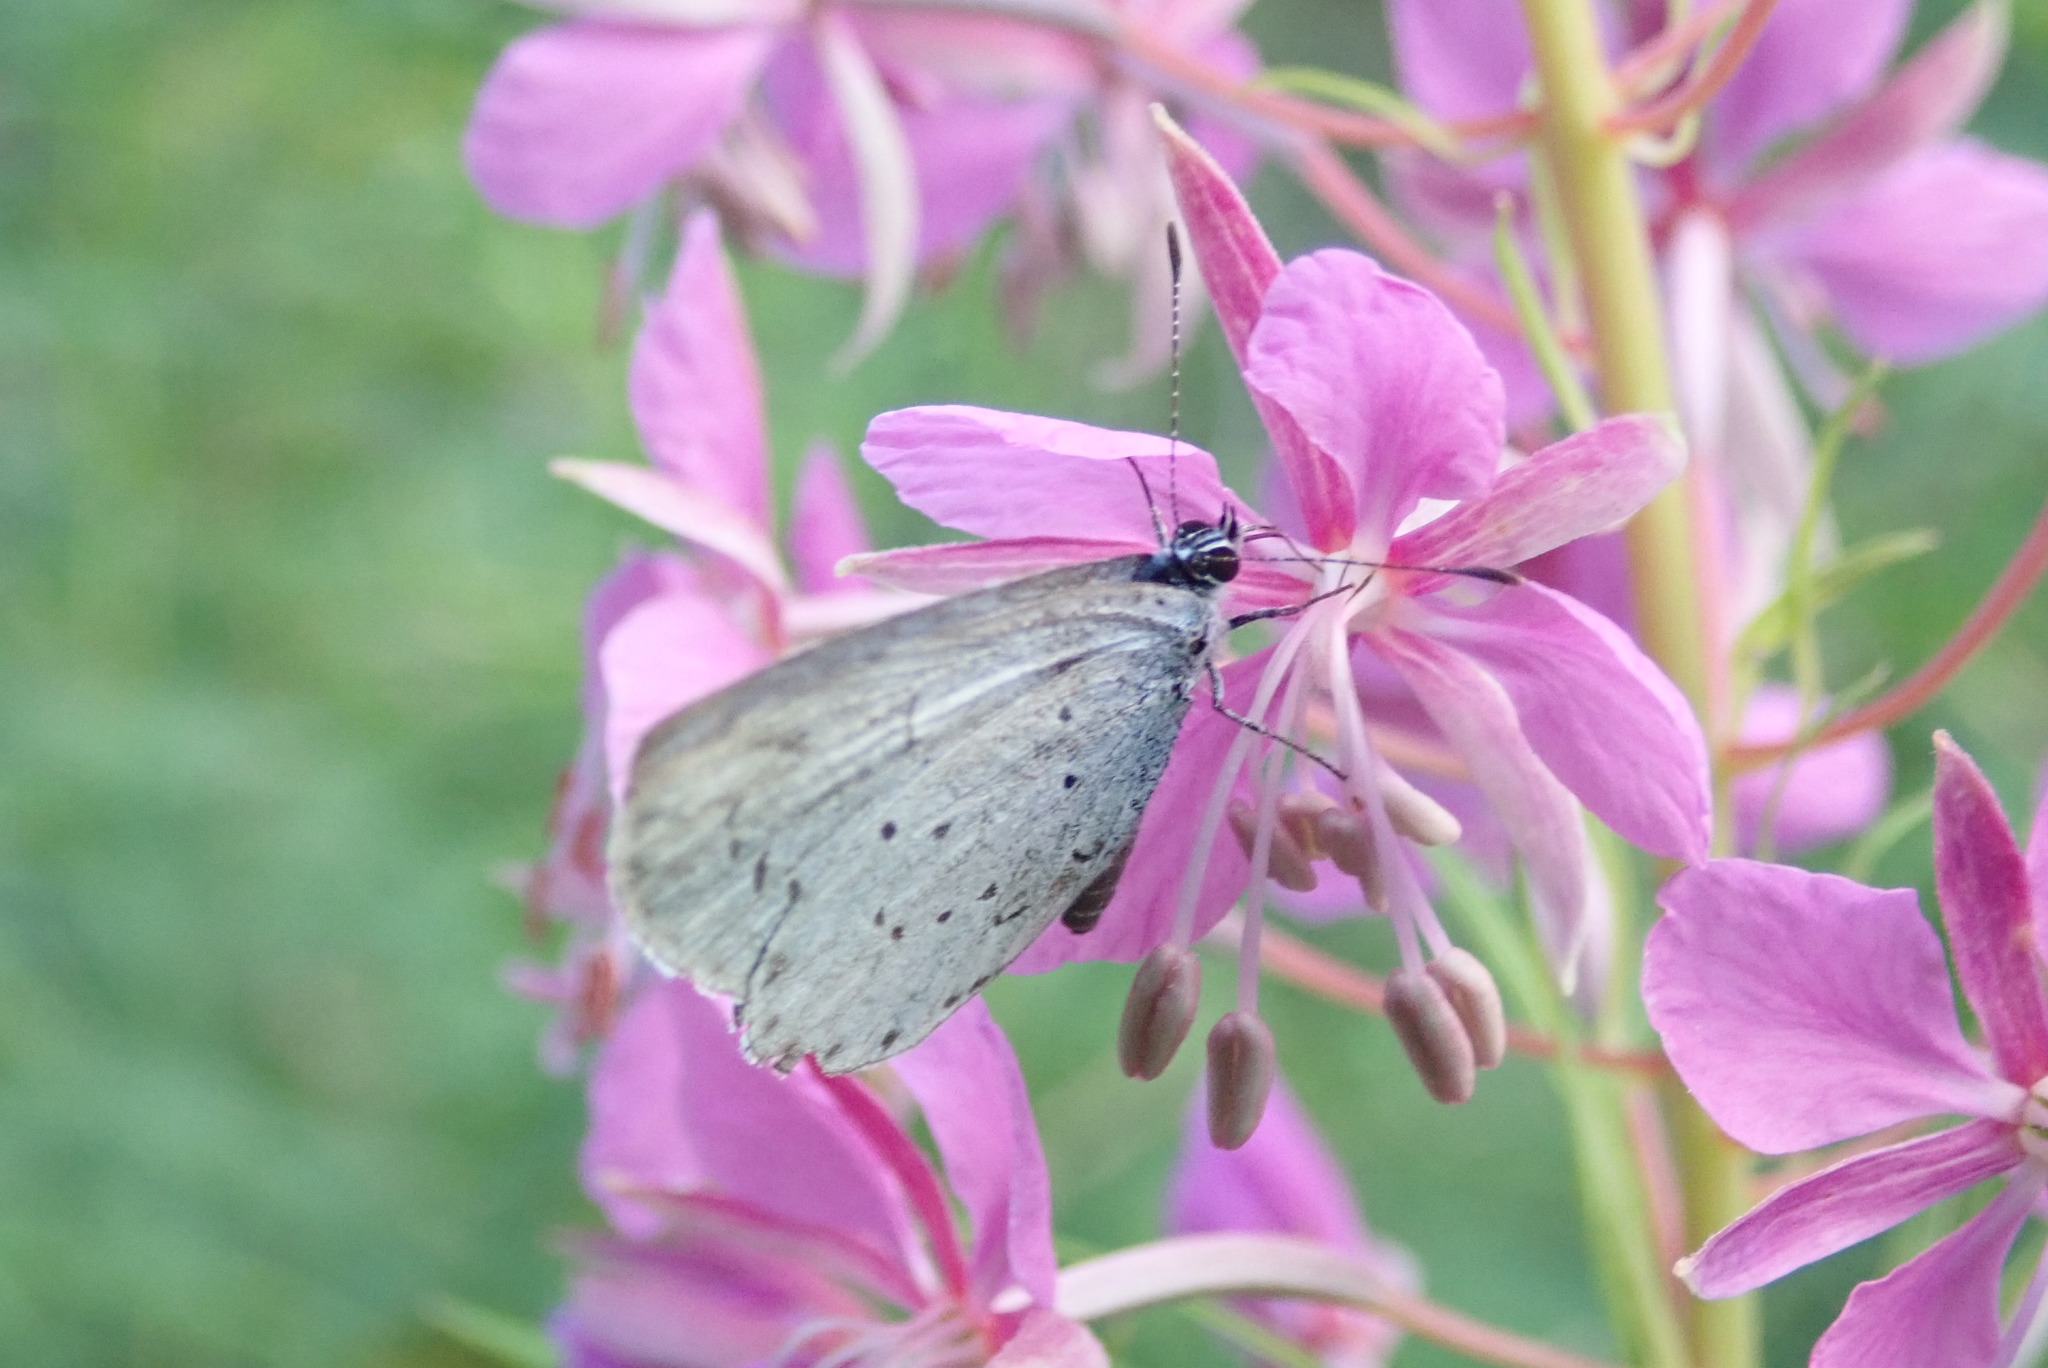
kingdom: Animalia
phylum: Arthropoda
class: Insecta
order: Lepidoptera
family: Lycaenidae
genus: Celastrina
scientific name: Celastrina argiolus
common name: Holly blue
